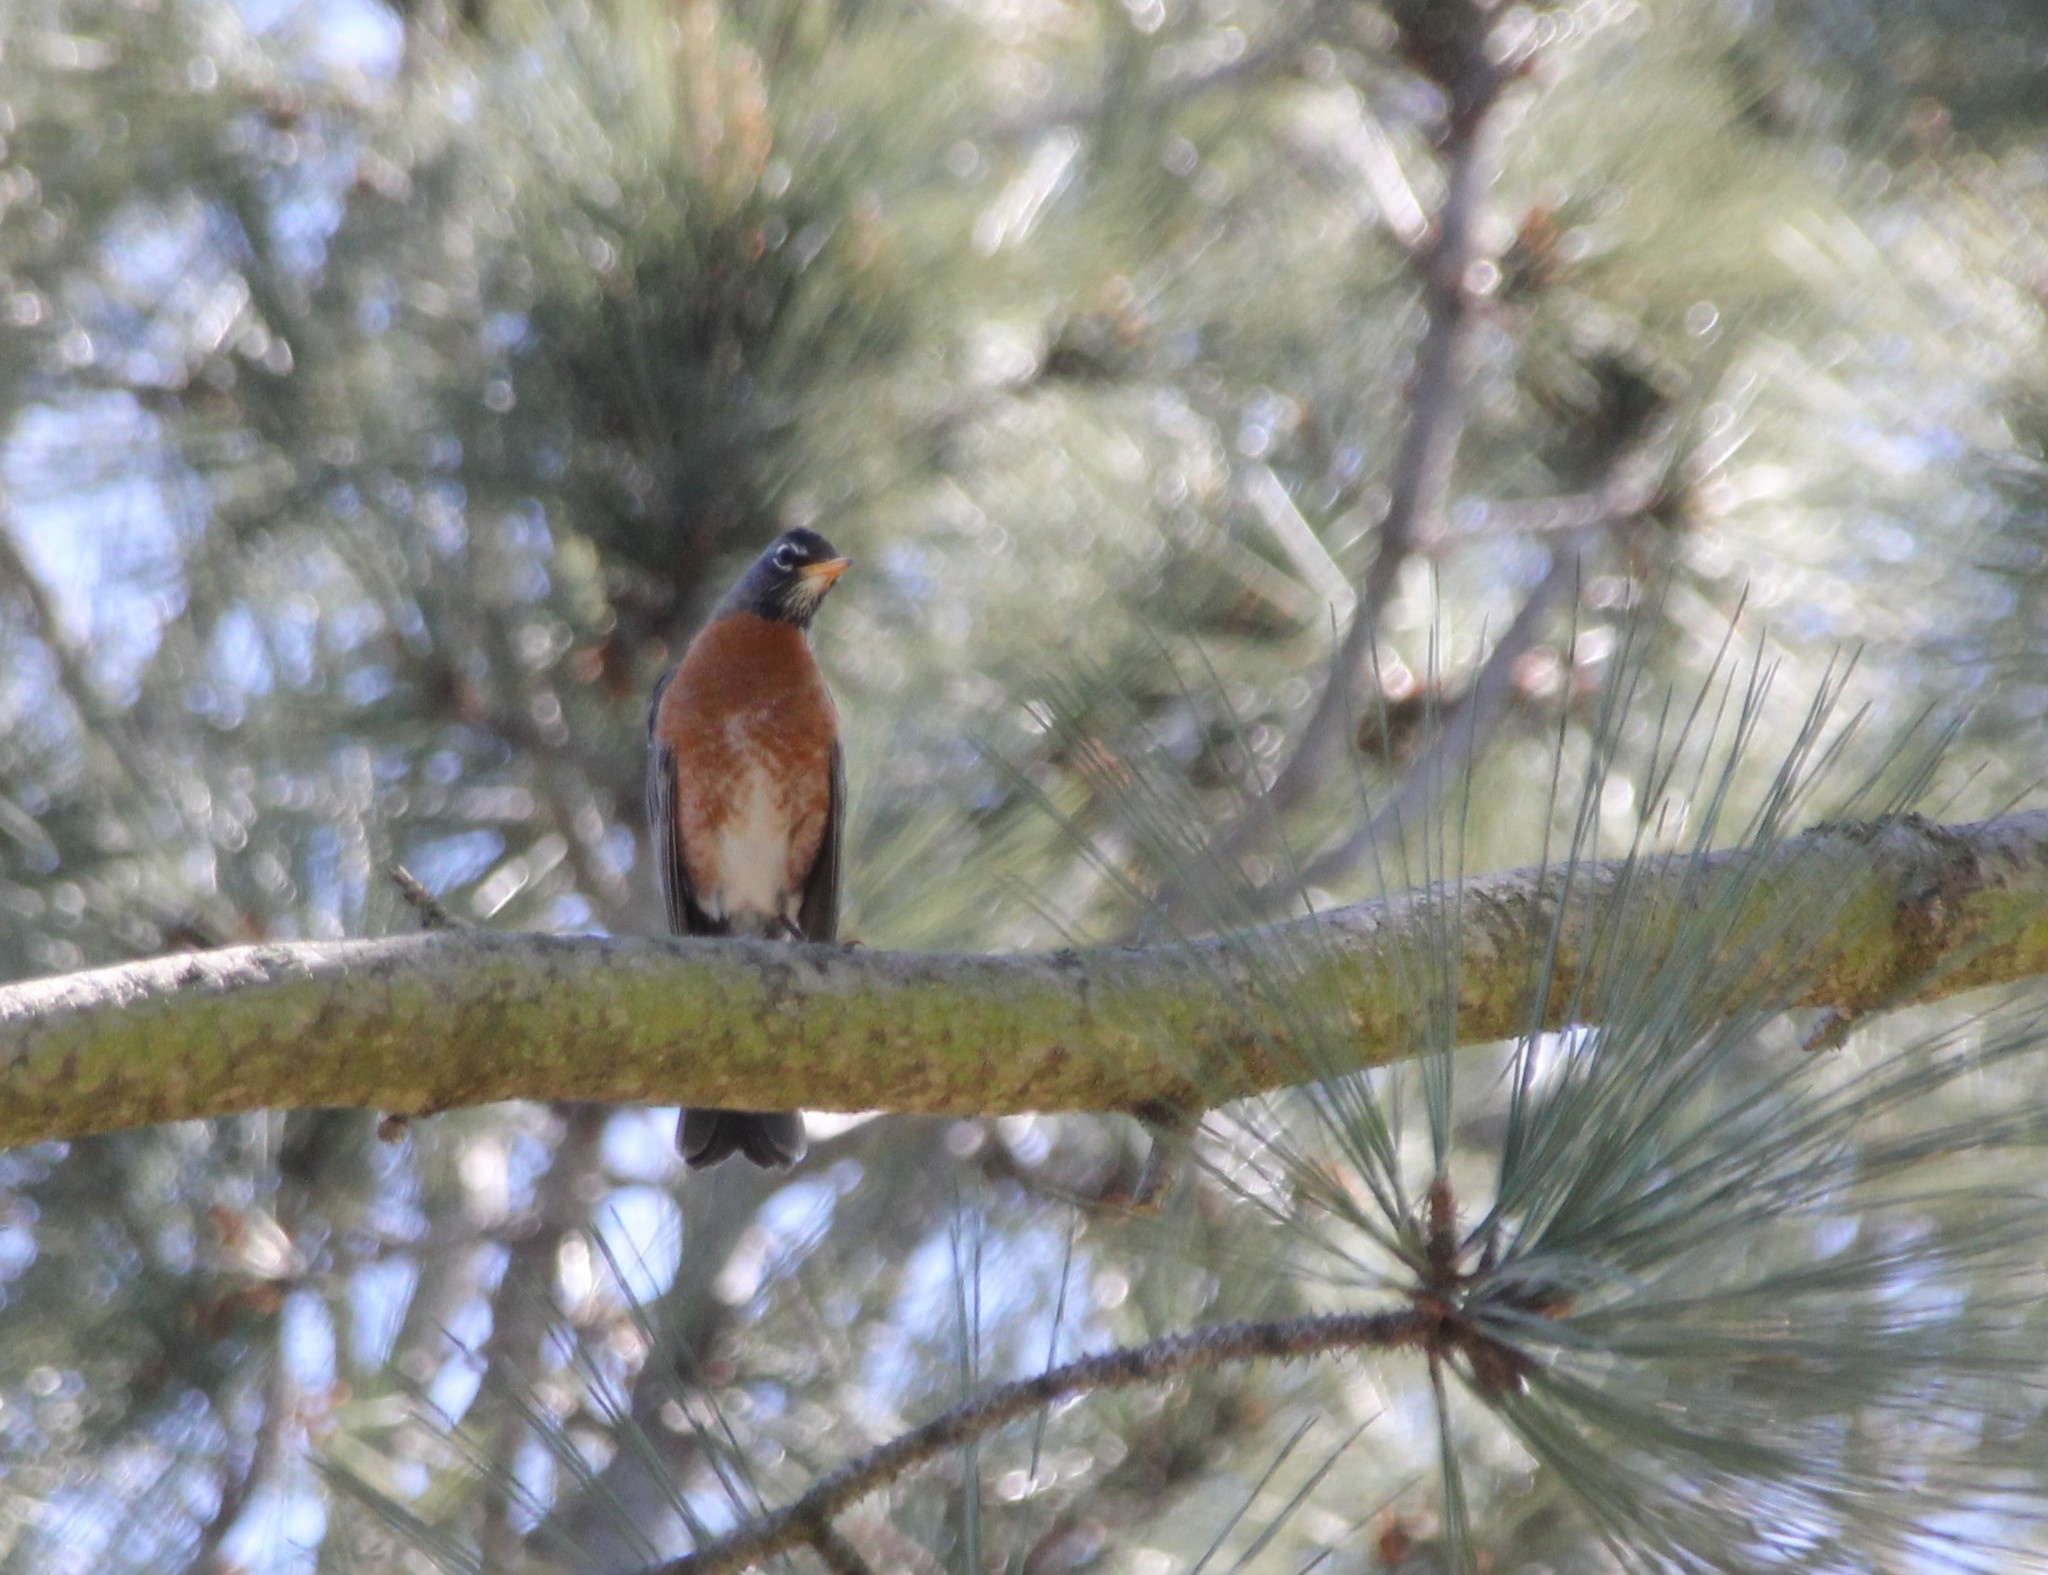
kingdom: Animalia
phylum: Chordata
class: Aves
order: Passeriformes
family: Turdidae
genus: Turdus
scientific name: Turdus migratorius
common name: American robin
